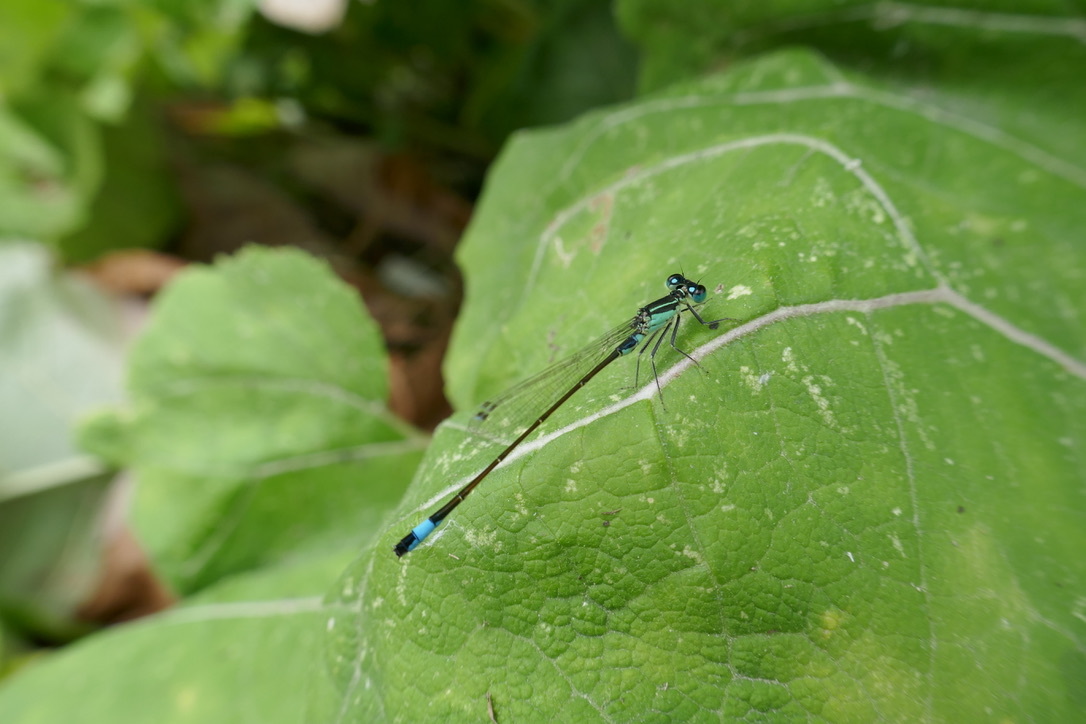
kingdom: Animalia
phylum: Arthropoda
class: Insecta
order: Odonata
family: Coenagrionidae
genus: Ischnura
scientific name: Ischnura elegans
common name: Blue-tailed damselfly
